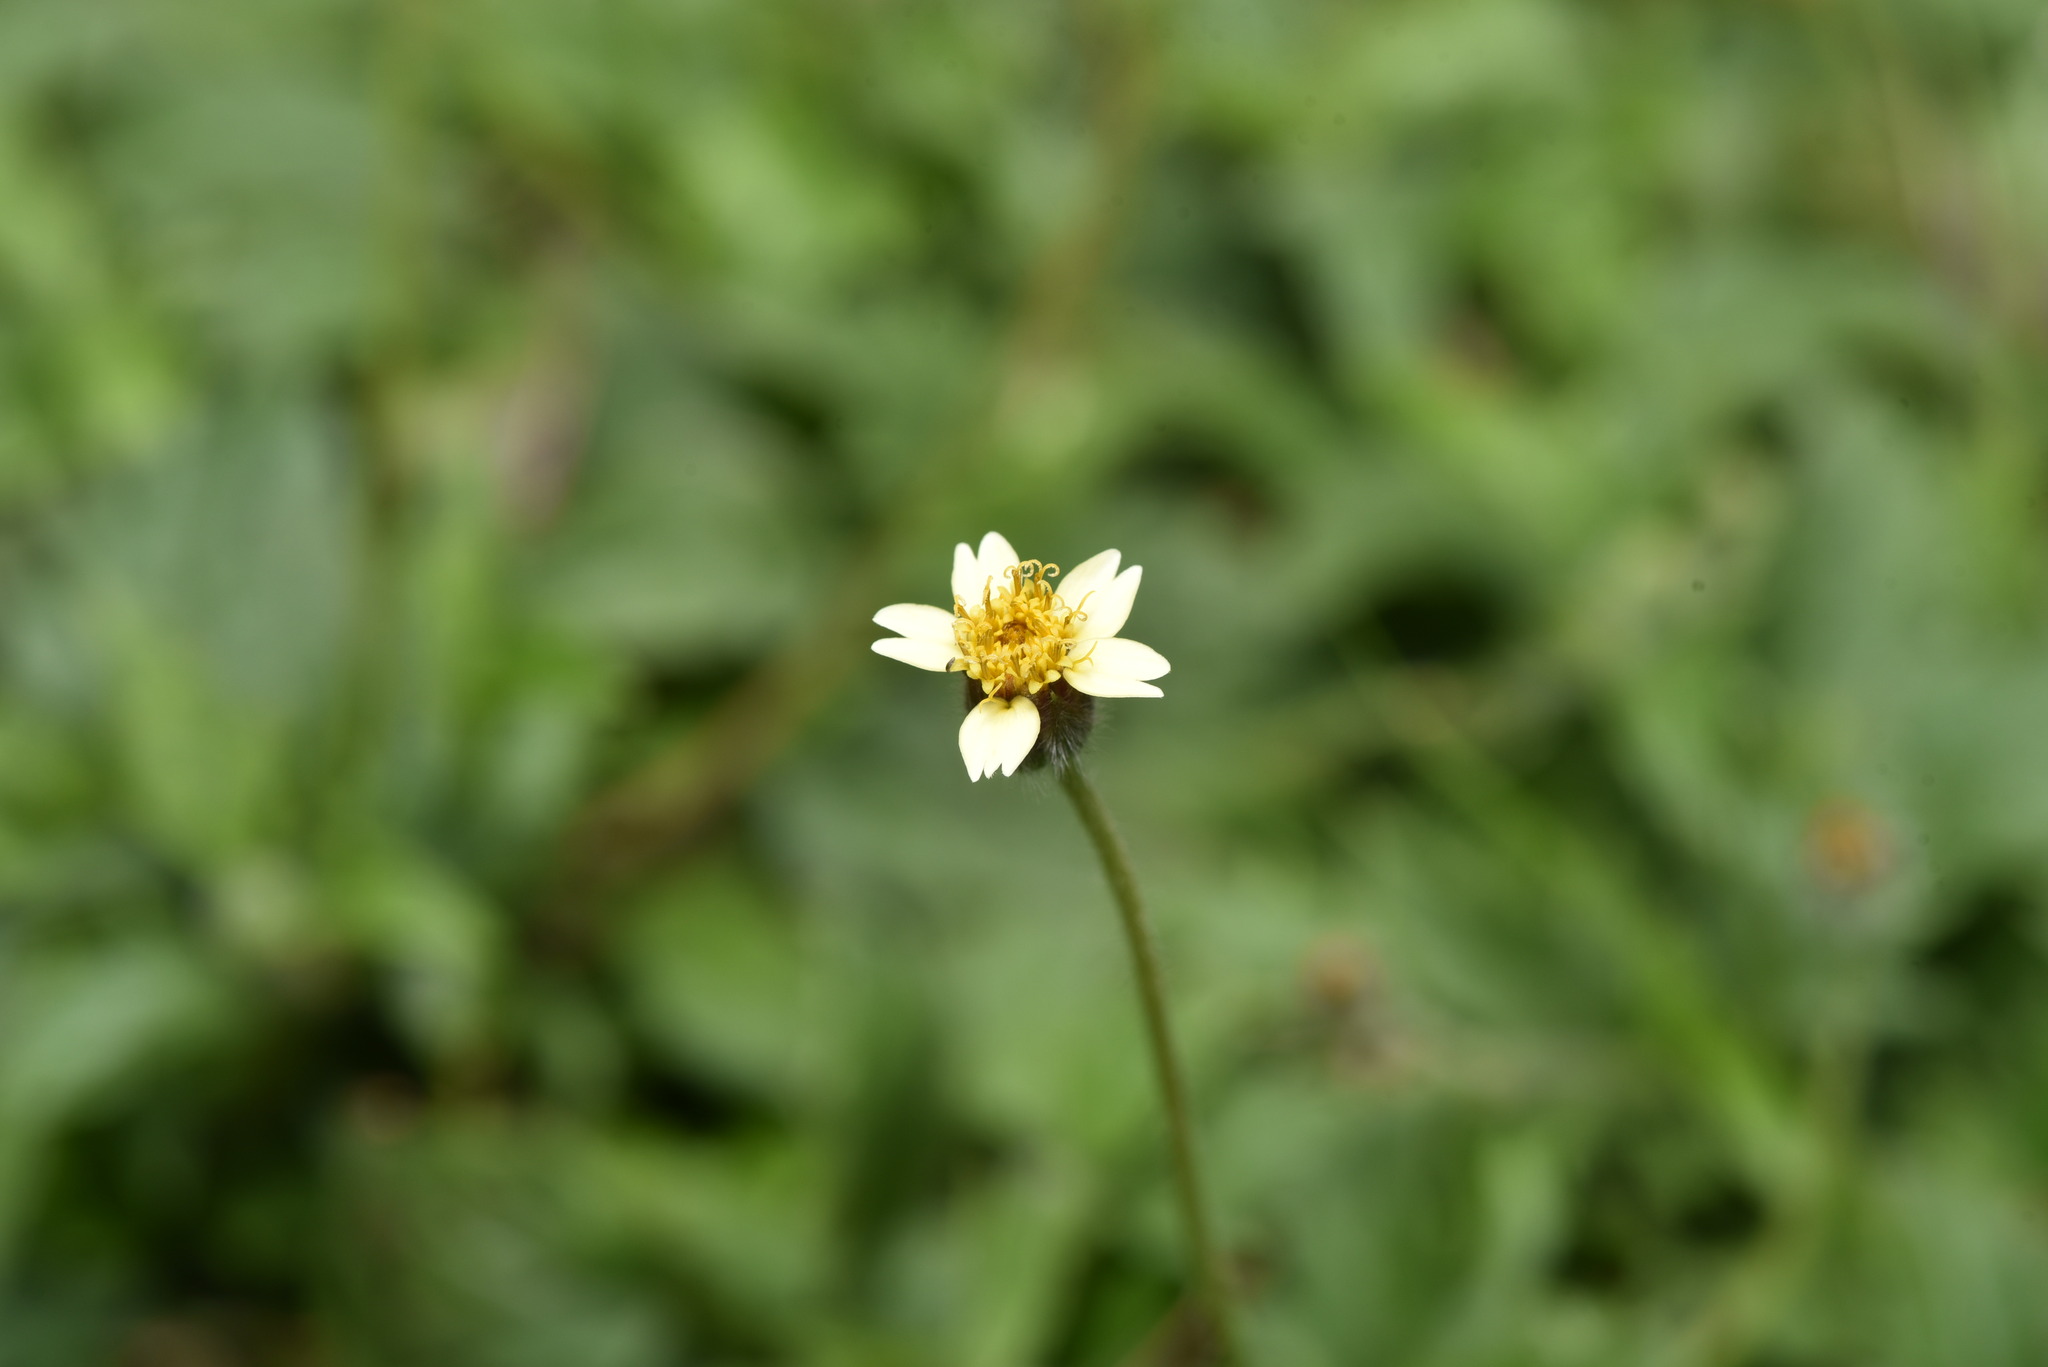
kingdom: Plantae
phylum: Tracheophyta
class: Magnoliopsida
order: Asterales
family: Asteraceae
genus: Tridax
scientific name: Tridax procumbens
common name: Coatbuttons
